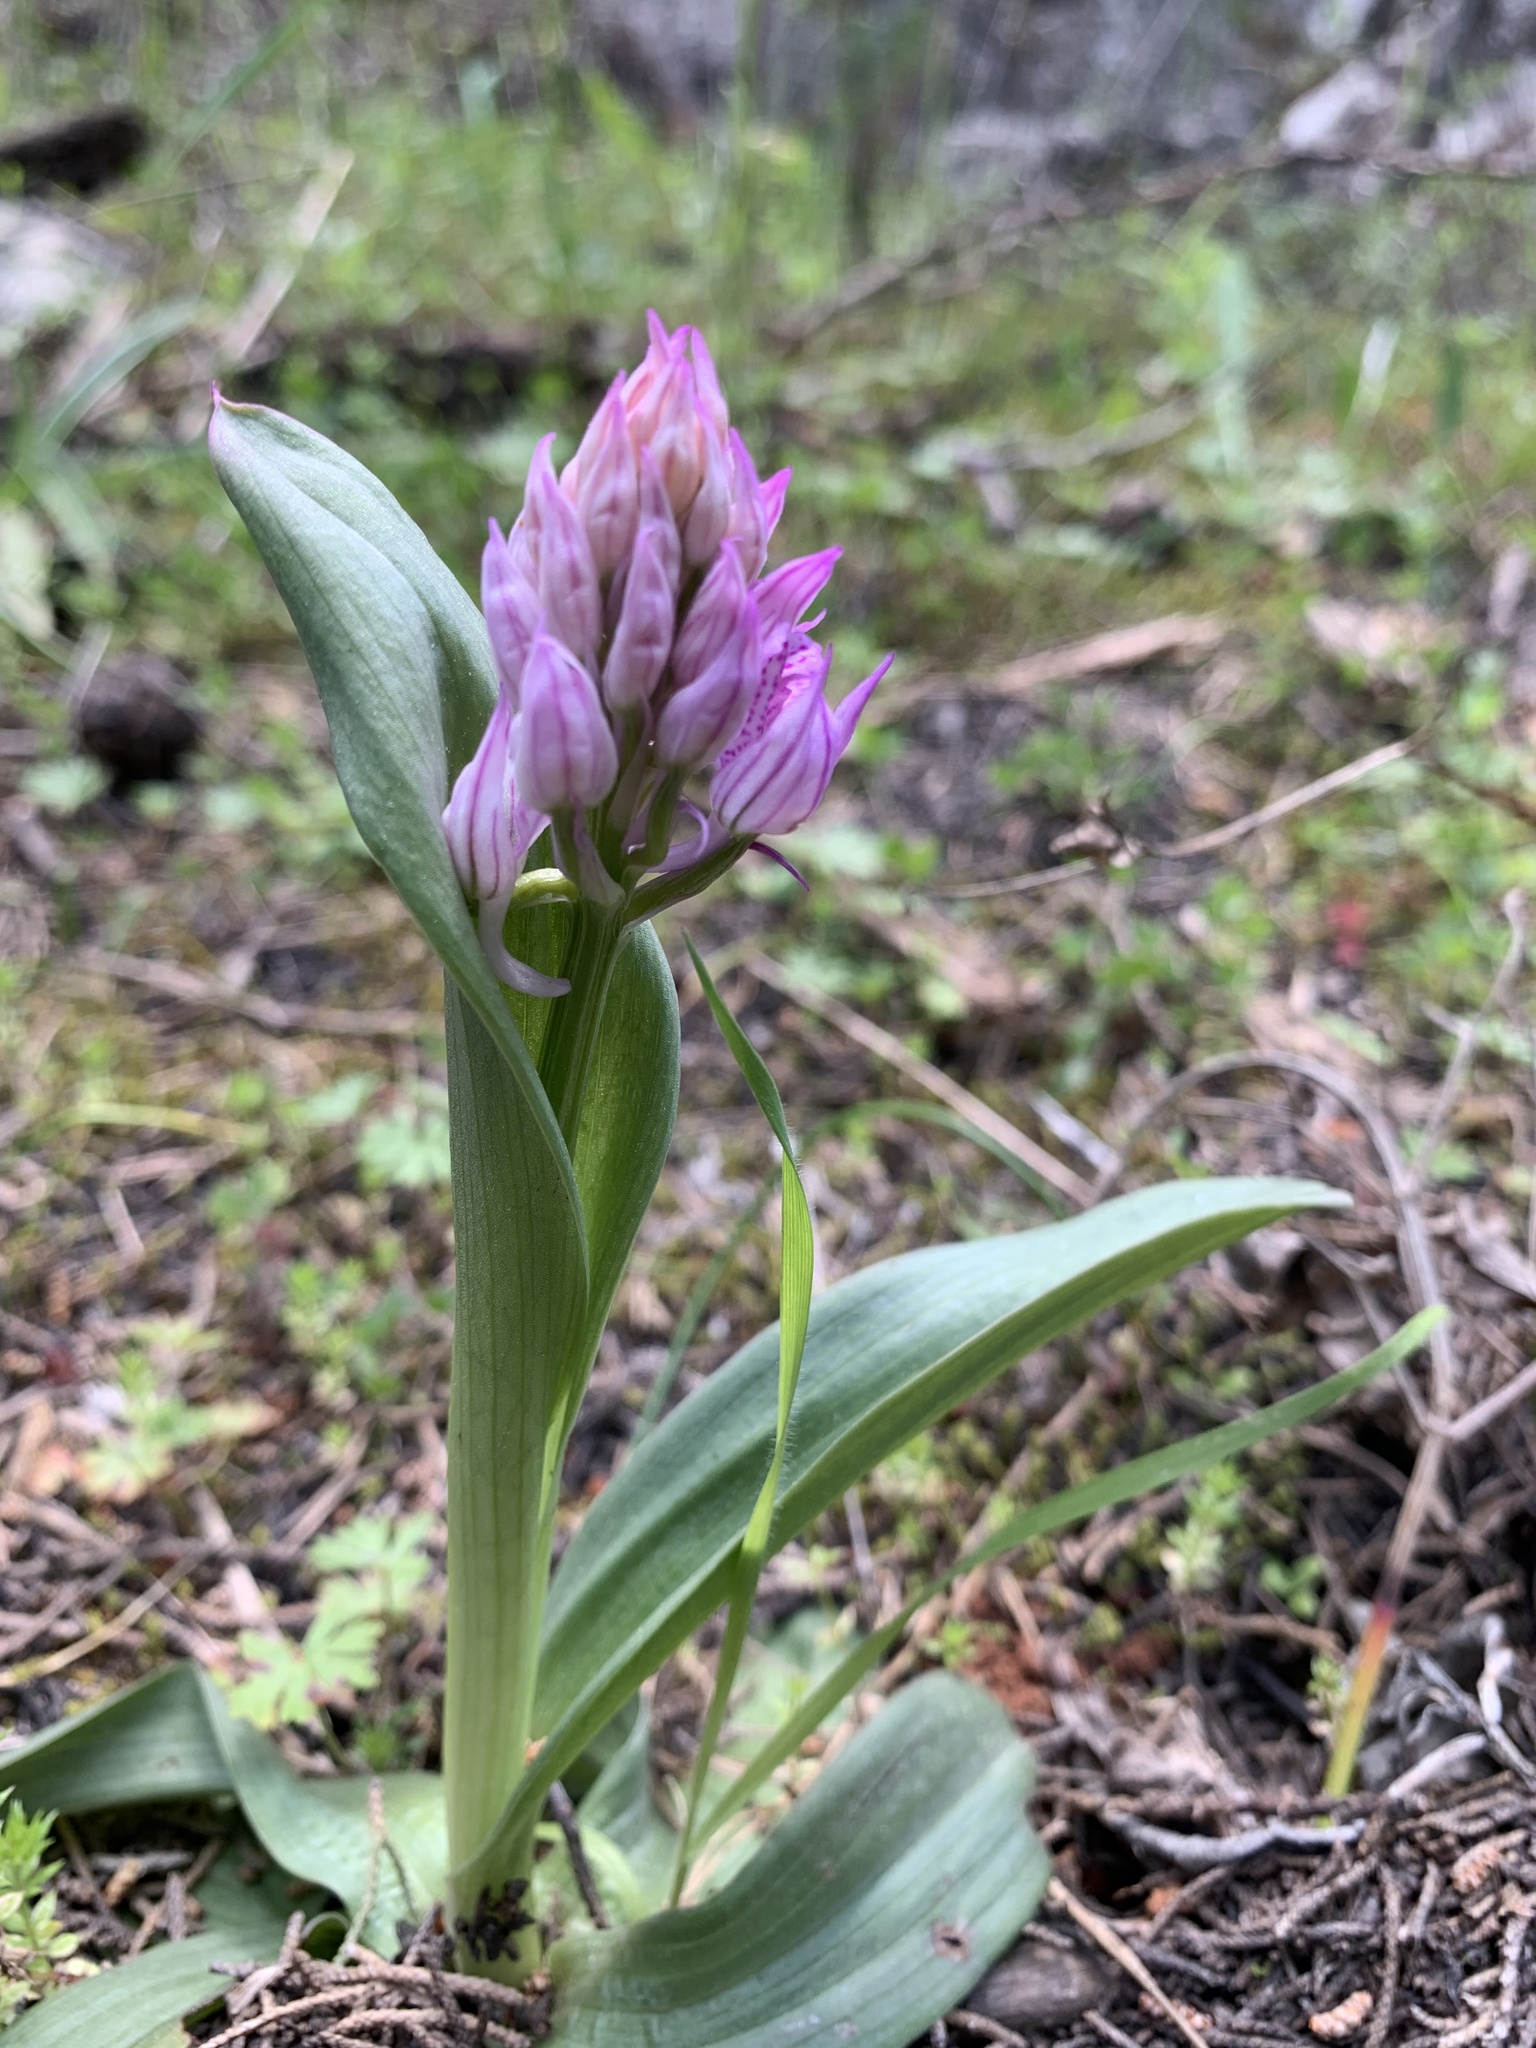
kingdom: Plantae
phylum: Tracheophyta
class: Liliopsida
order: Asparagales
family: Orchidaceae
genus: Neotinea
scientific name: Neotinea tridentata
